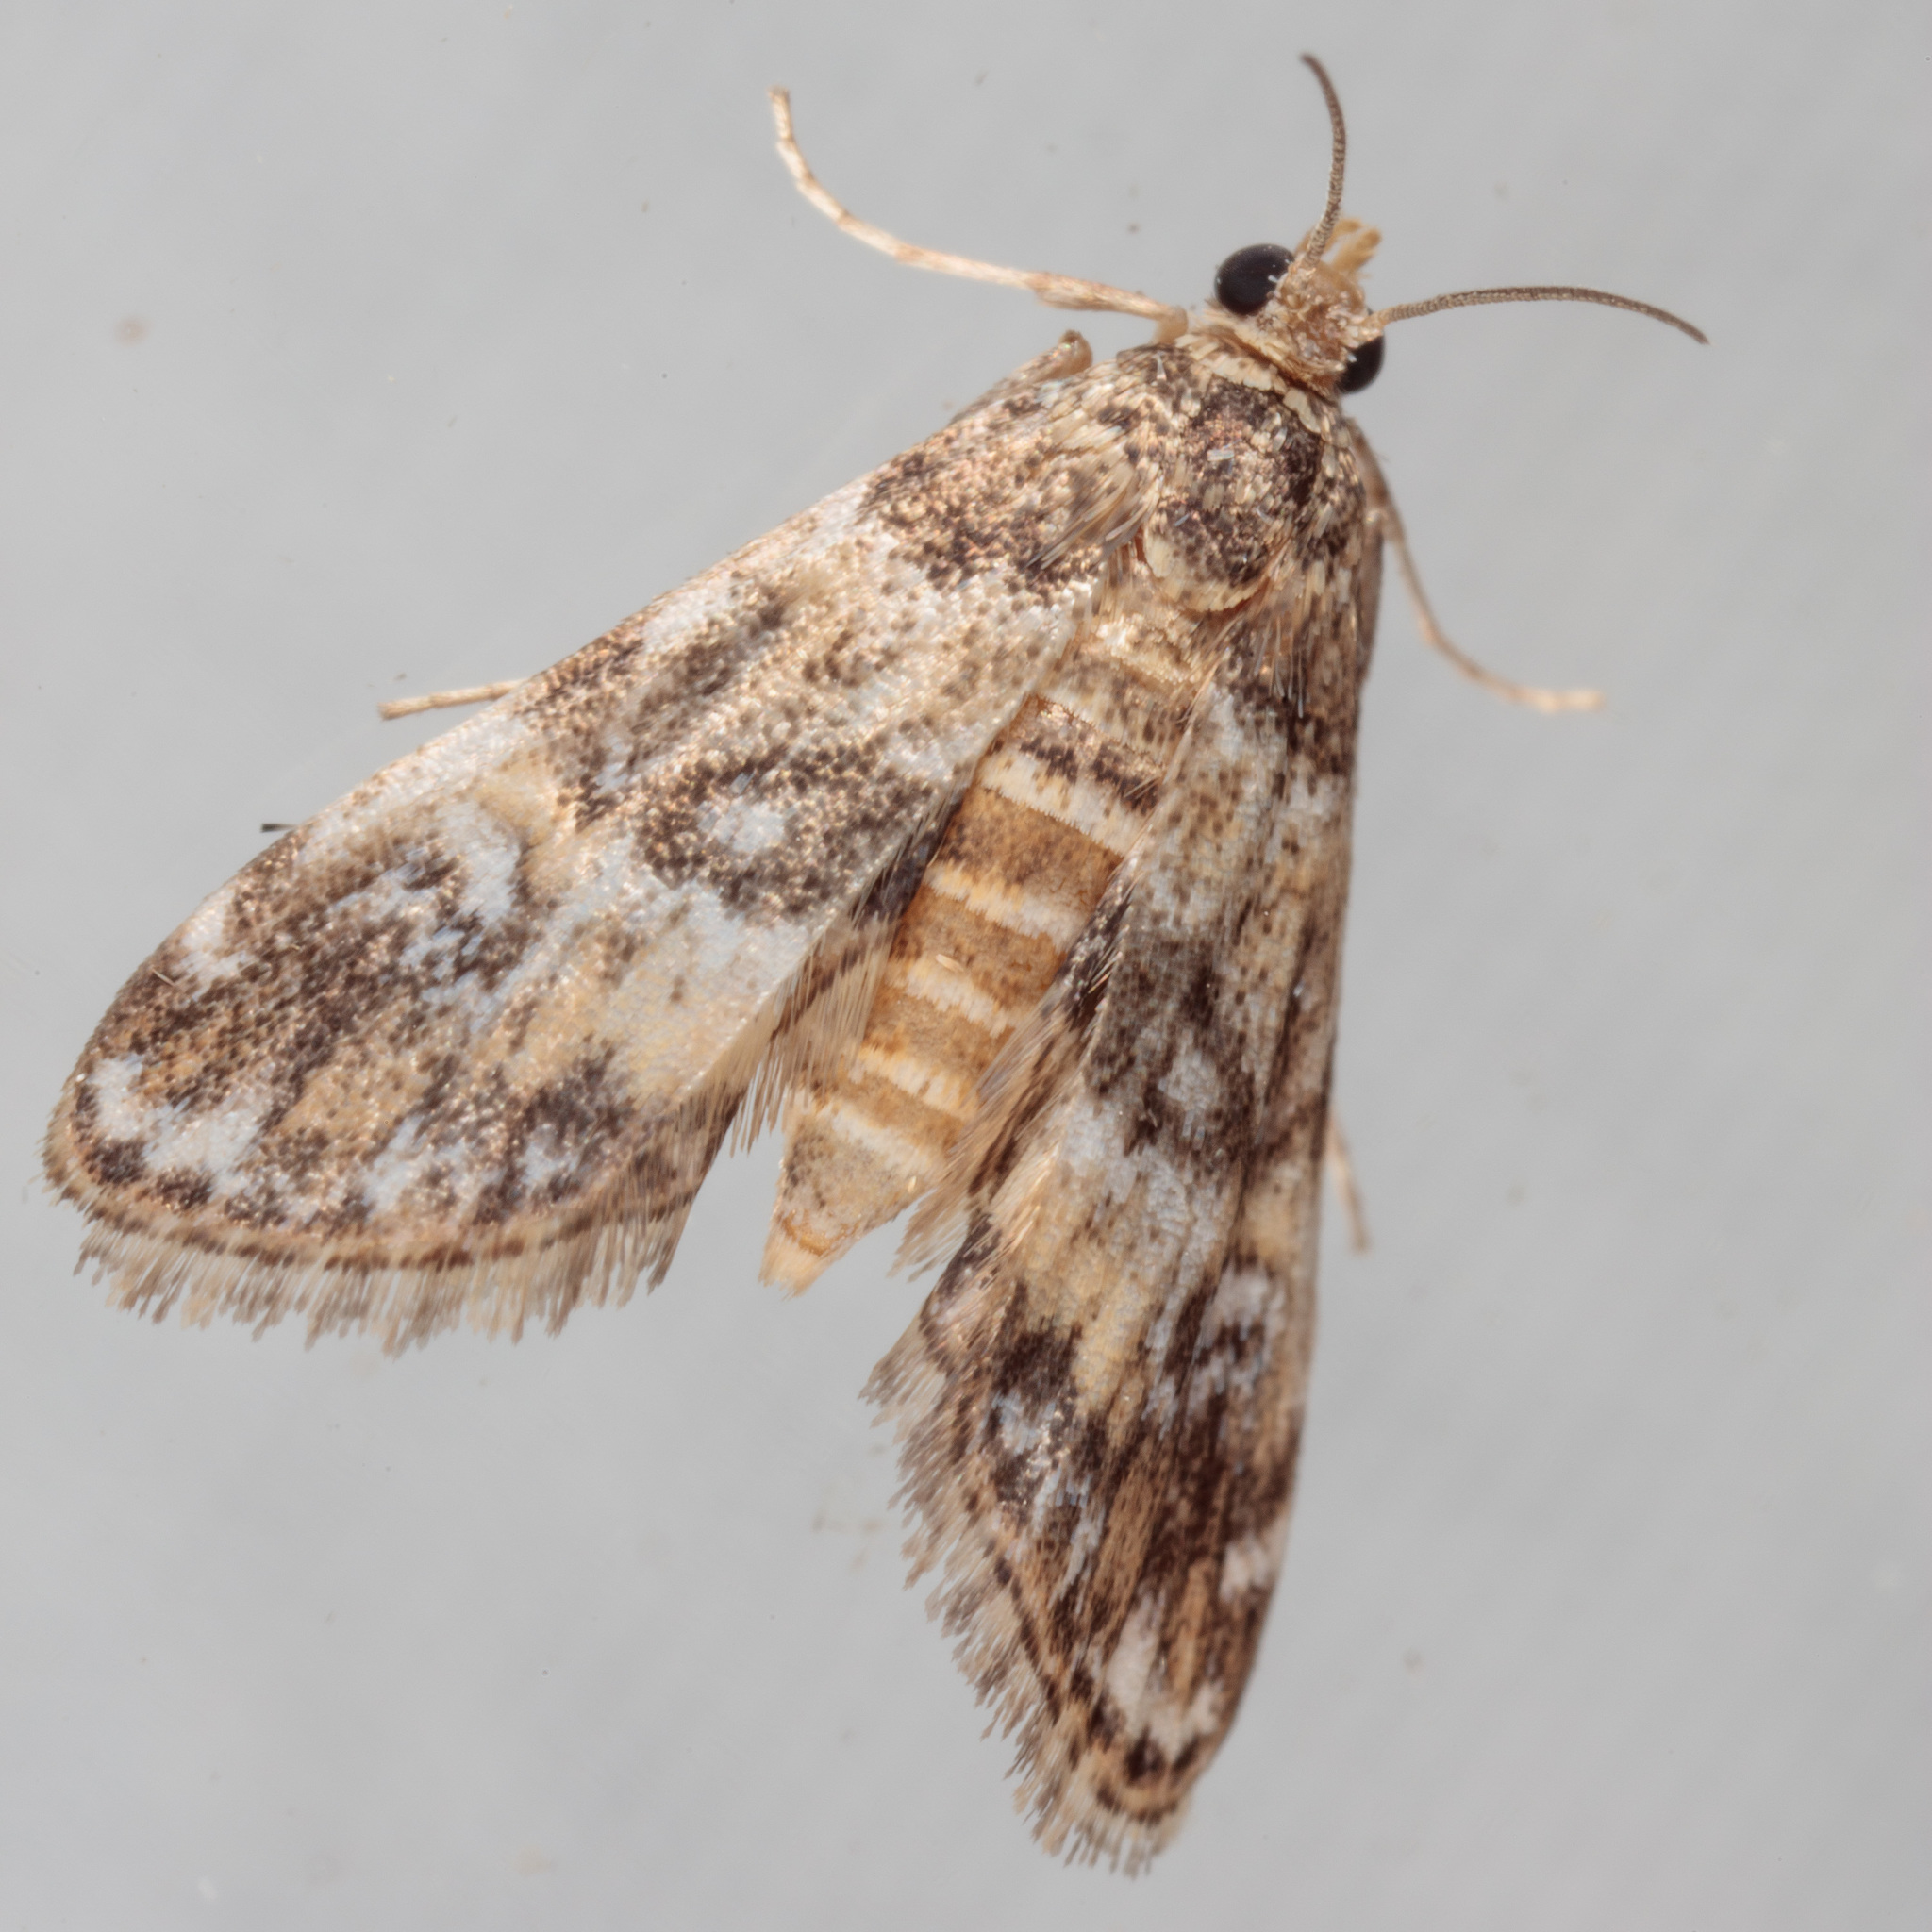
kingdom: Animalia
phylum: Arthropoda
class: Insecta
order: Lepidoptera
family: Crambidae
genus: Elophila
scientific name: Elophila obliteralis
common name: Waterlily leafcutter moth
